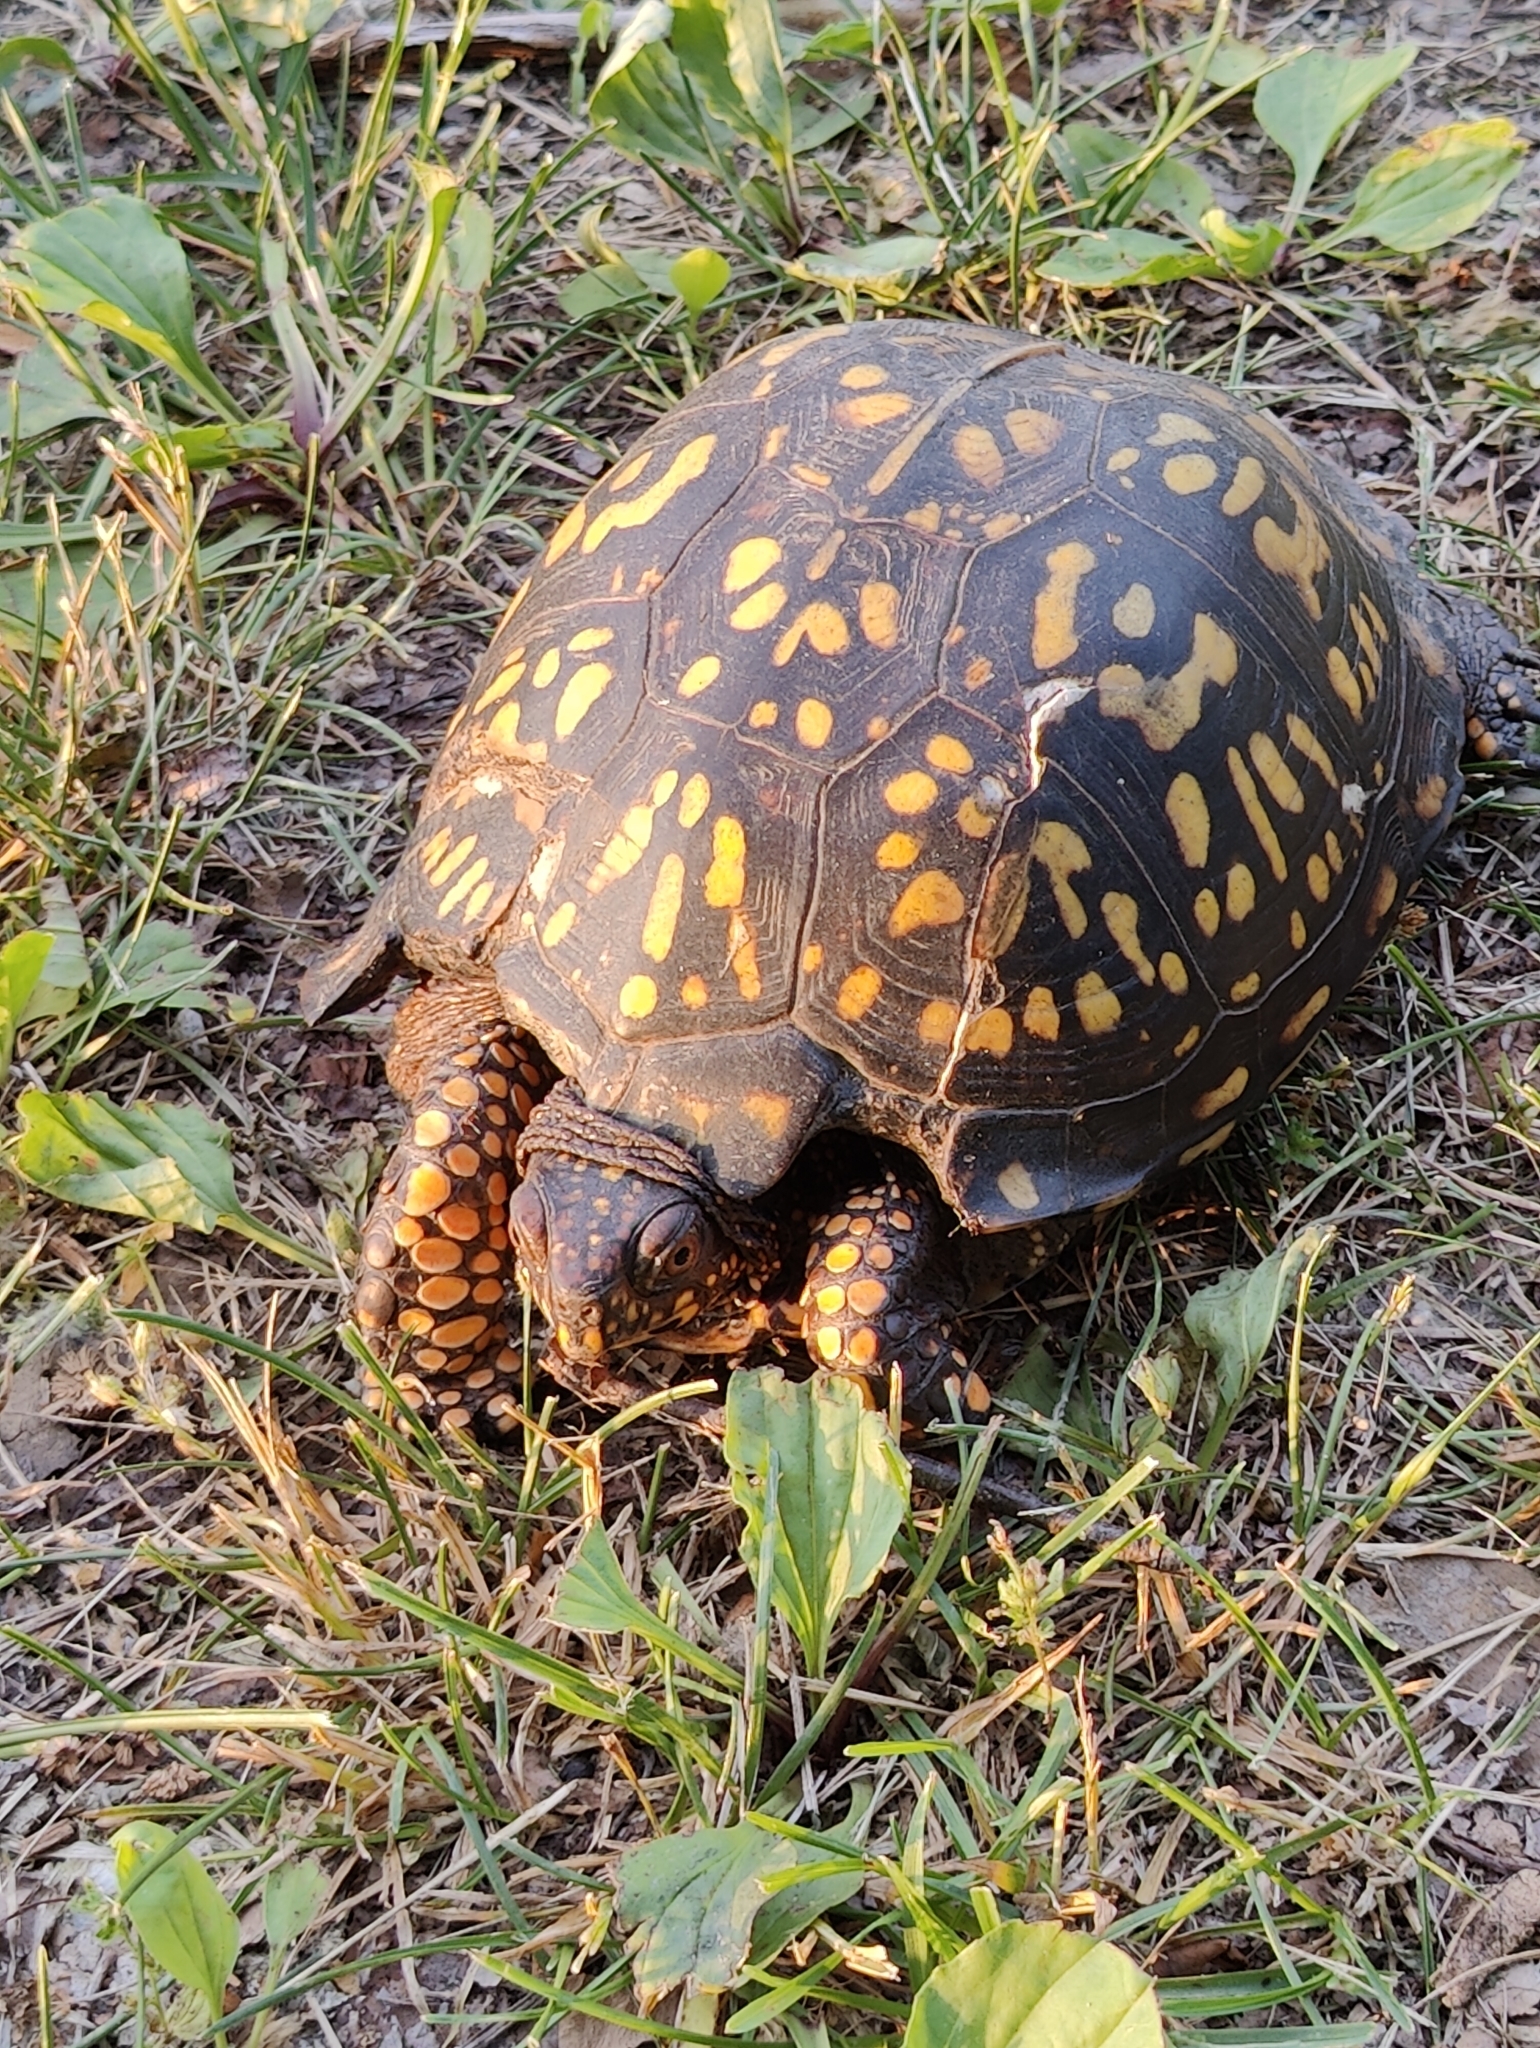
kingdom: Animalia
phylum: Chordata
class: Testudines
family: Emydidae
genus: Terrapene
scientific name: Terrapene carolina
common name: Common box turtle
